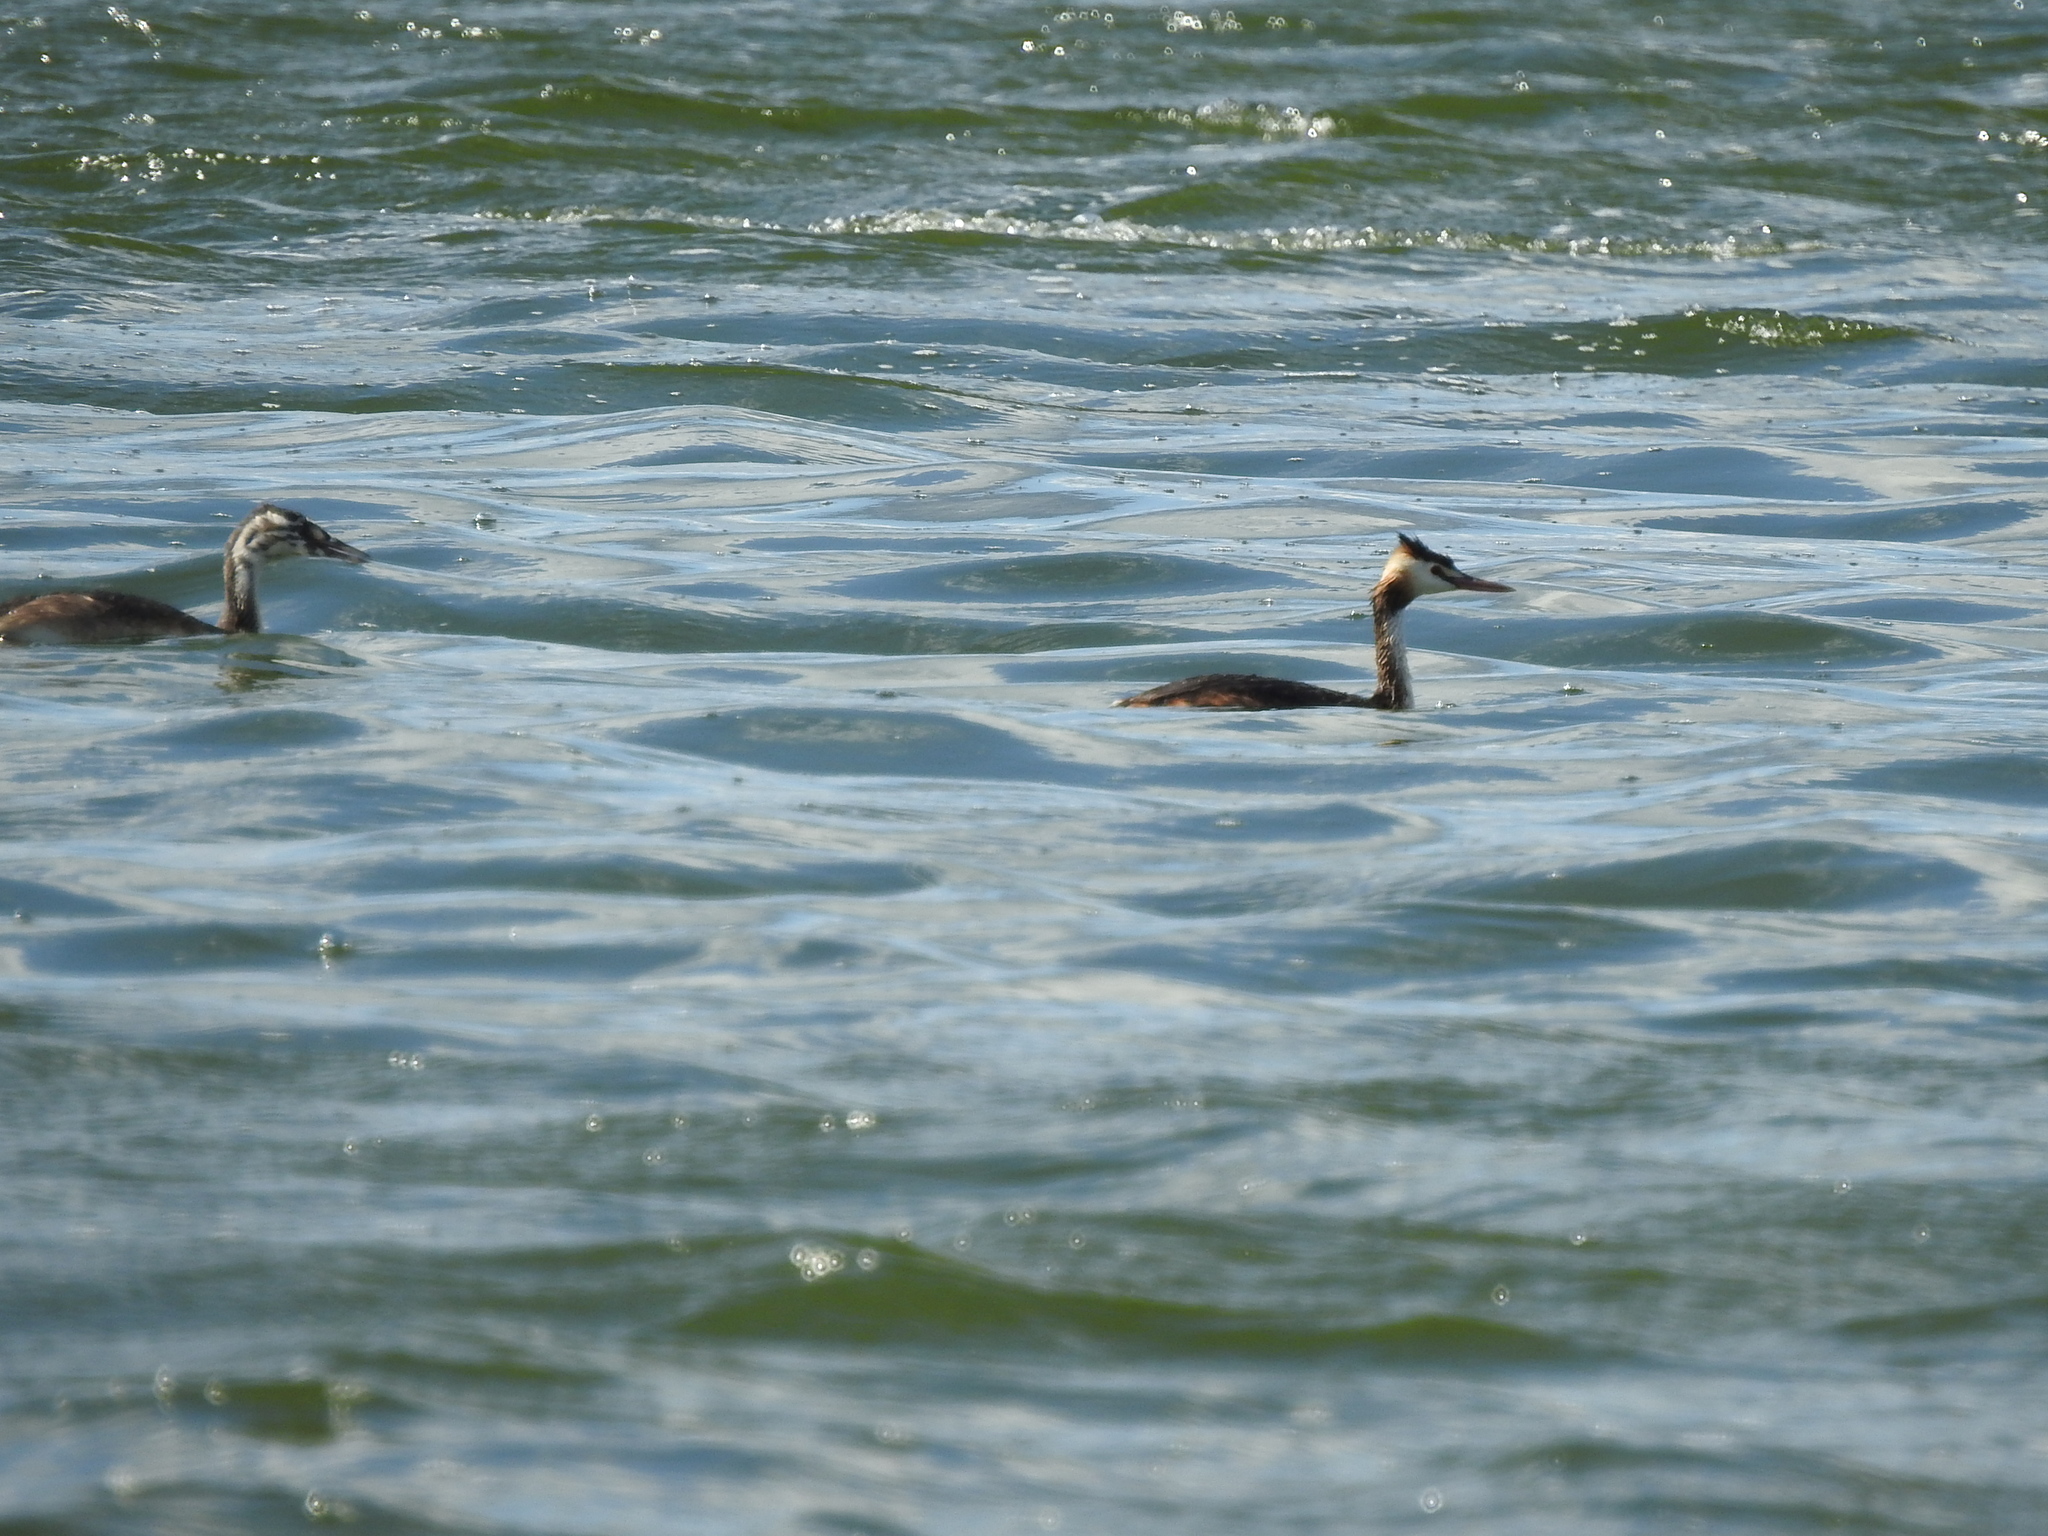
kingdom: Animalia
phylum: Chordata
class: Aves
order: Podicipediformes
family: Podicipedidae
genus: Podiceps
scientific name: Podiceps cristatus
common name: Great crested grebe
